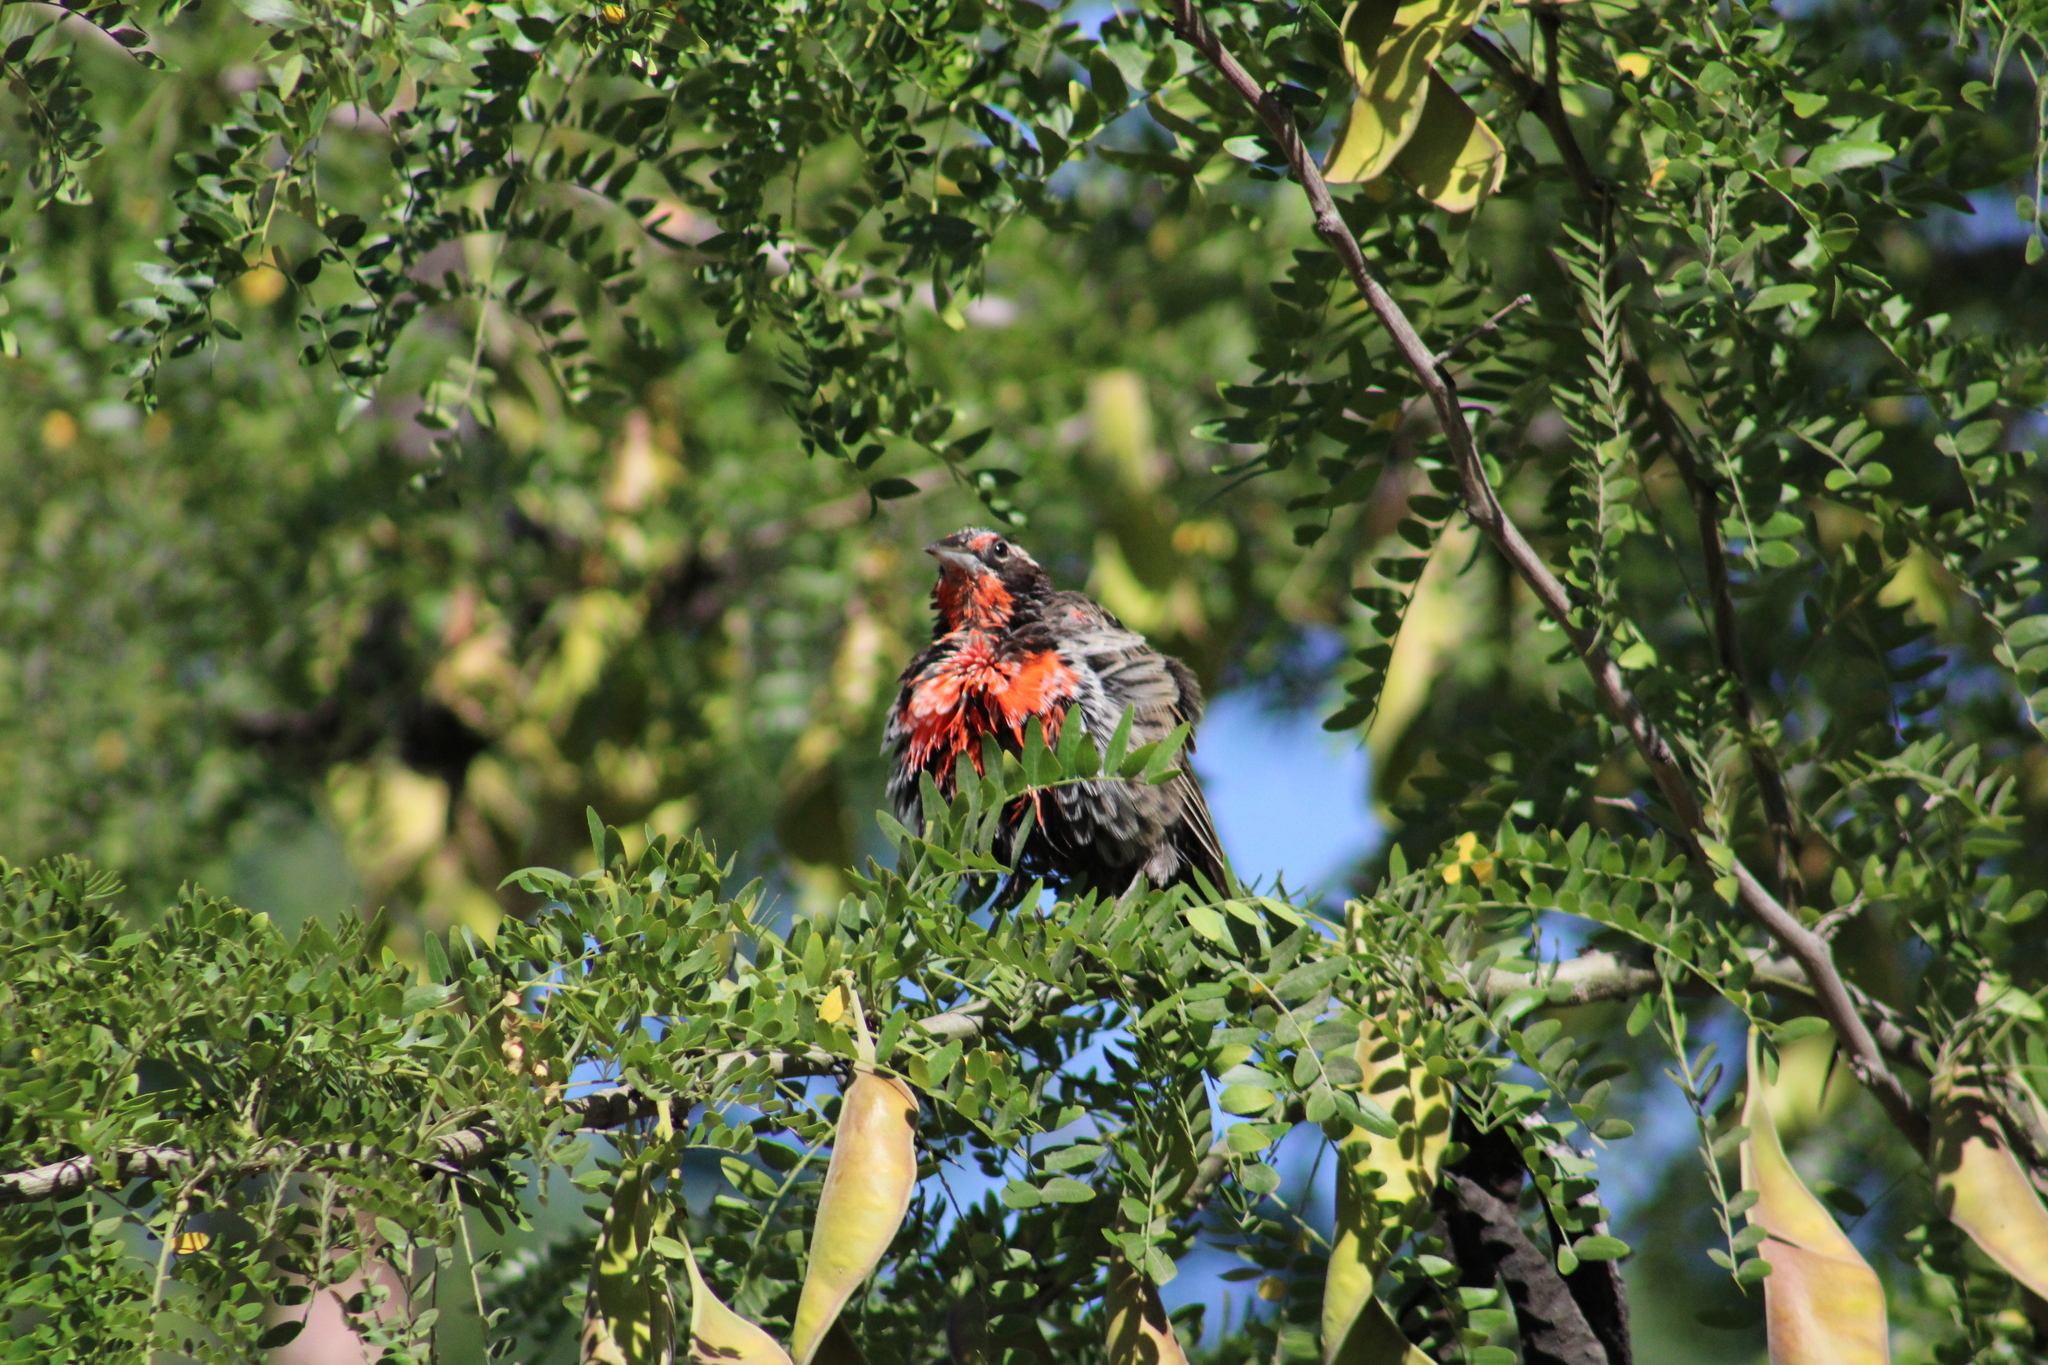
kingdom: Animalia
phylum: Chordata
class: Aves
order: Passeriformes
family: Icteridae
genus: Sturnella
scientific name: Sturnella loyca
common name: Long-tailed meadowlark
